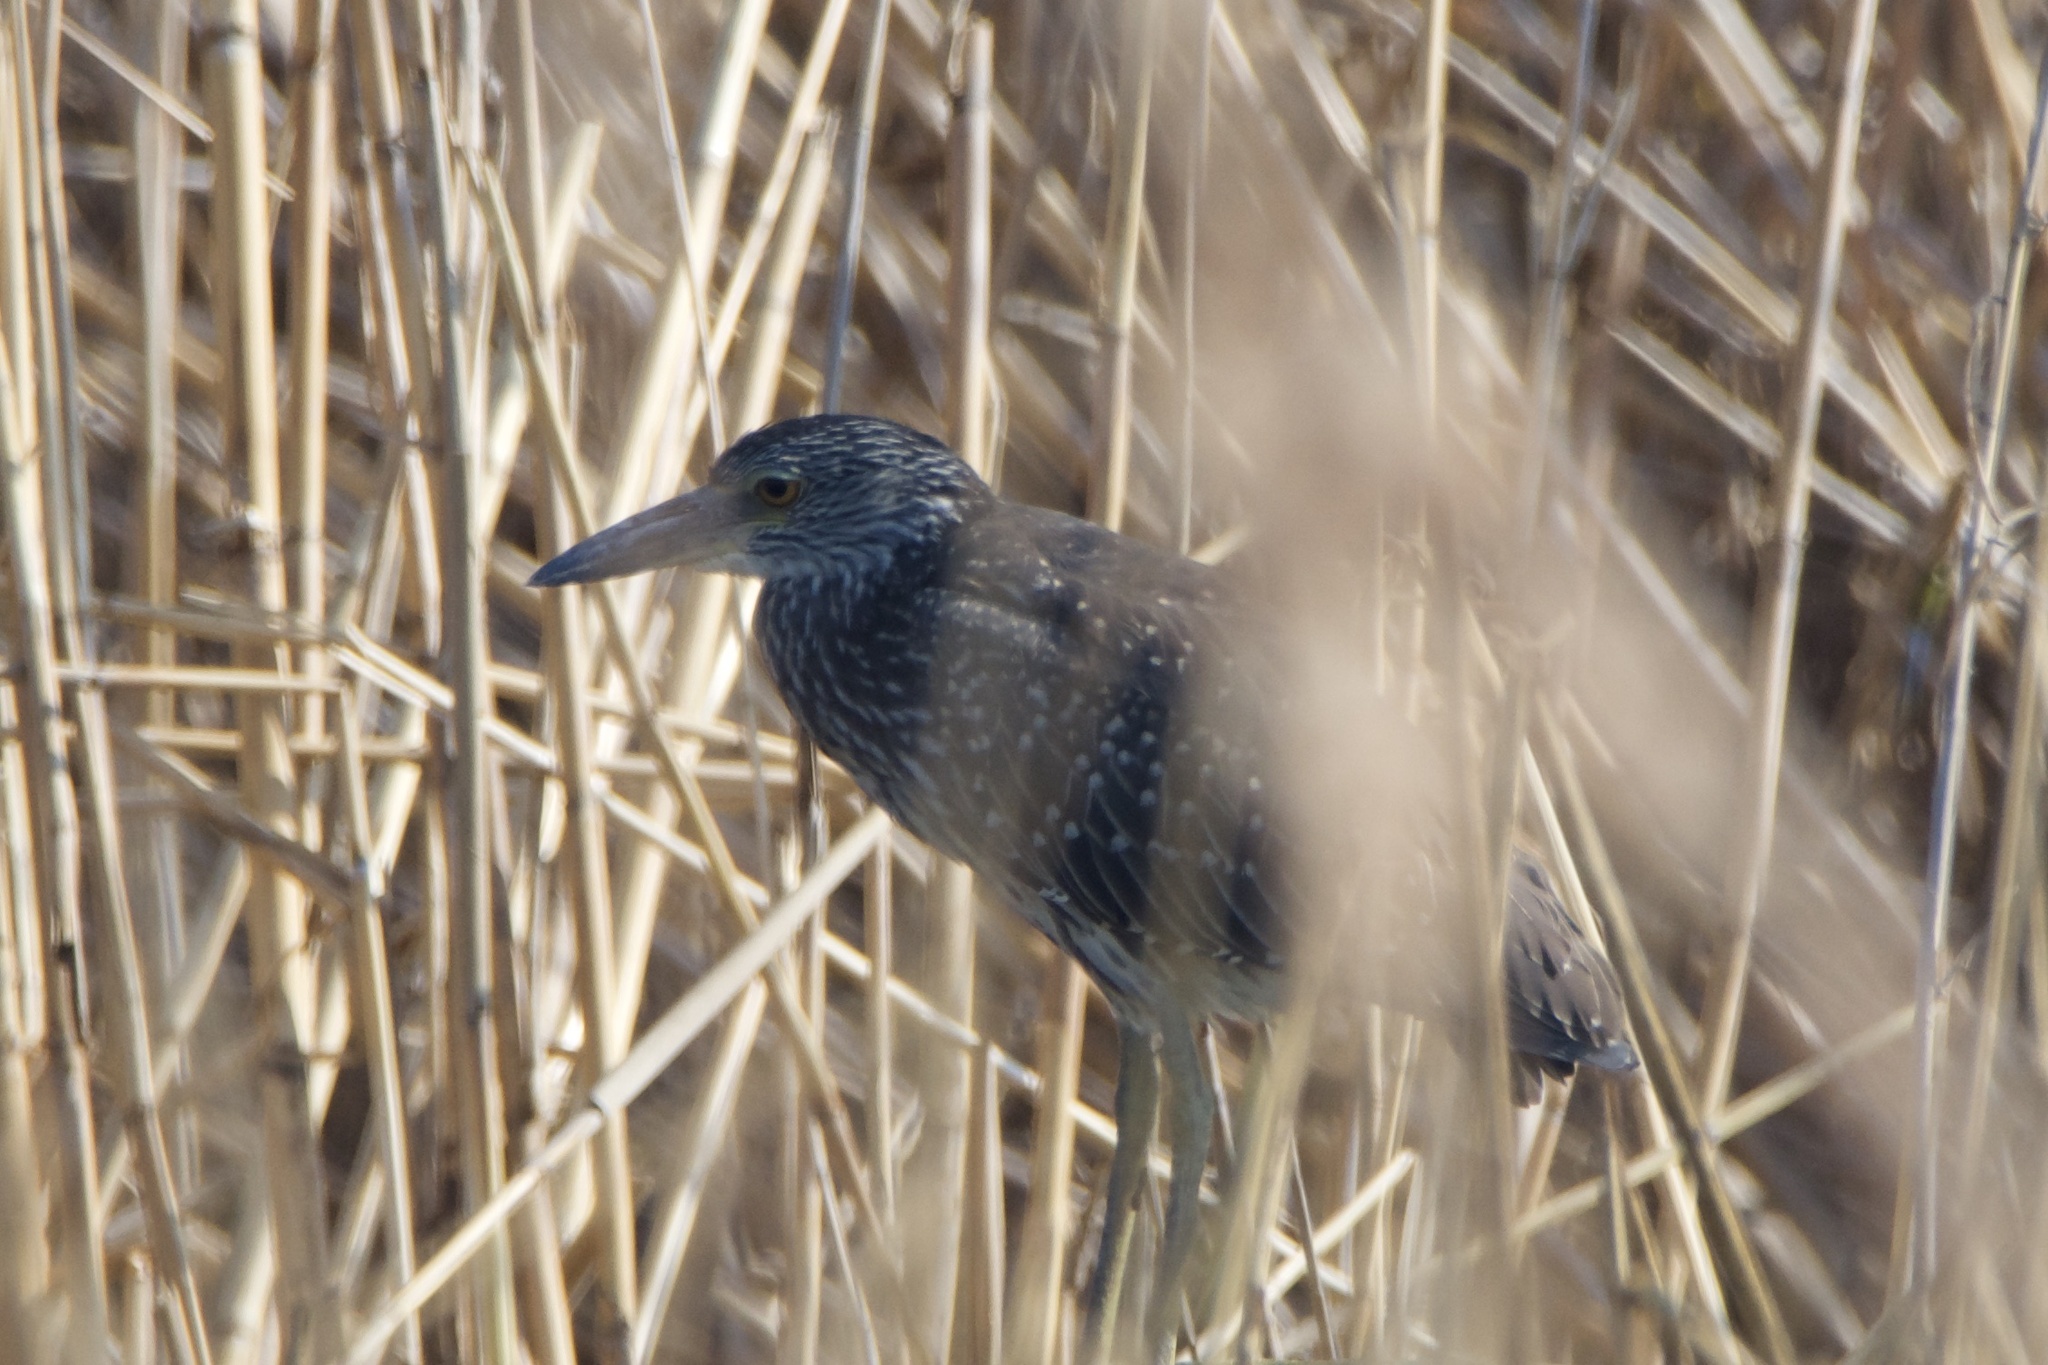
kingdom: Animalia
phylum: Chordata
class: Aves
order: Pelecaniformes
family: Ardeidae
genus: Nyctanassa
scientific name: Nyctanassa violacea
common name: Yellow-crowned night heron
